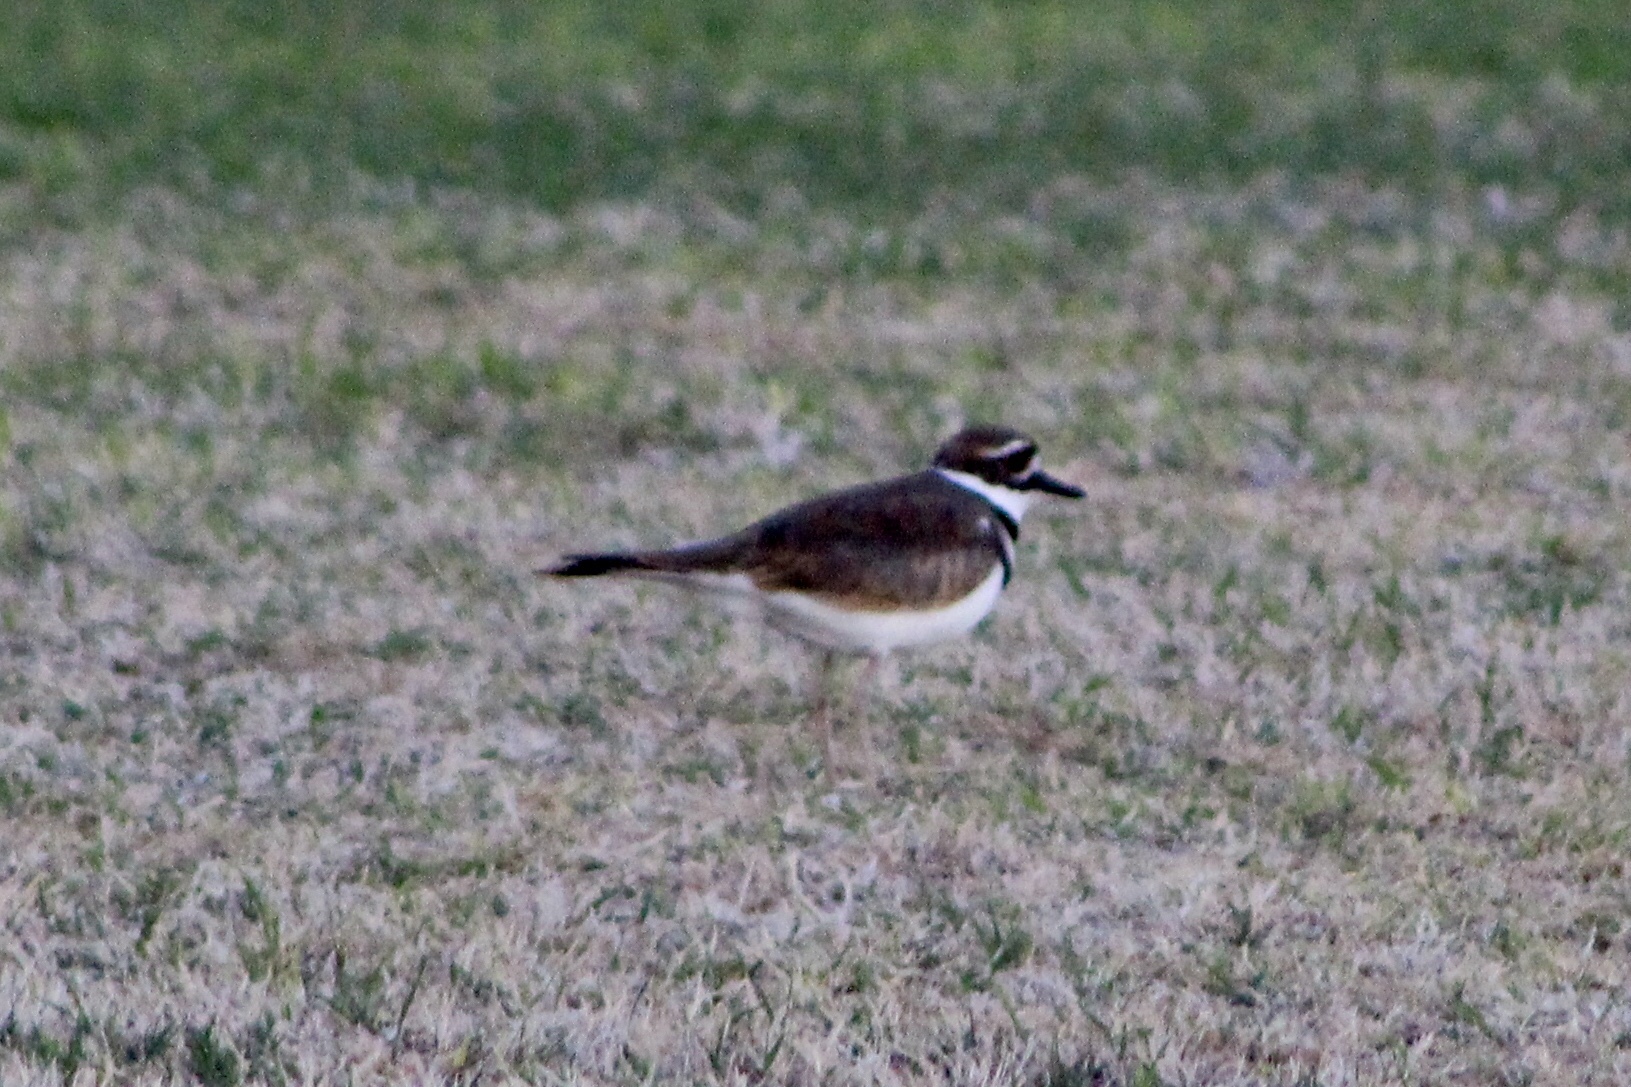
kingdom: Animalia
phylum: Chordata
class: Aves
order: Charadriiformes
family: Charadriidae
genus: Charadrius
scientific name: Charadrius vociferus
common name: Killdeer
